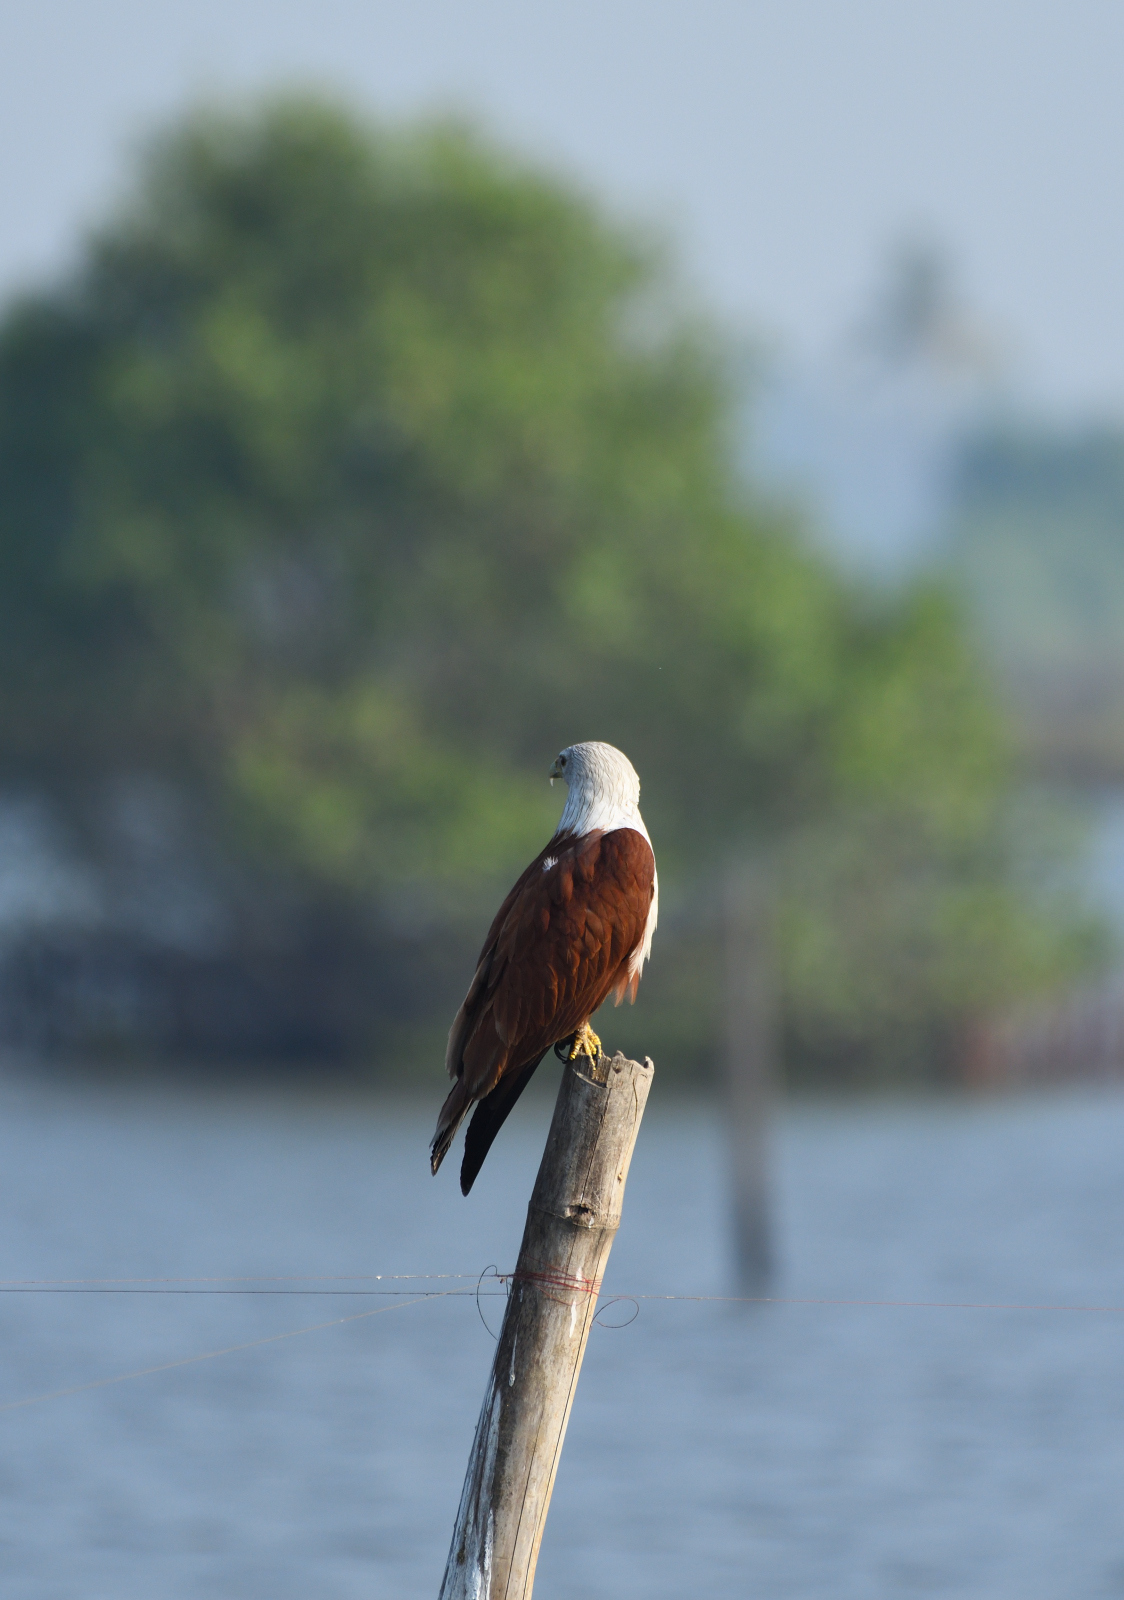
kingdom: Animalia
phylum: Chordata
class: Aves
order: Accipitriformes
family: Accipitridae
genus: Haliastur
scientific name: Haliastur indus
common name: Brahminy kite
